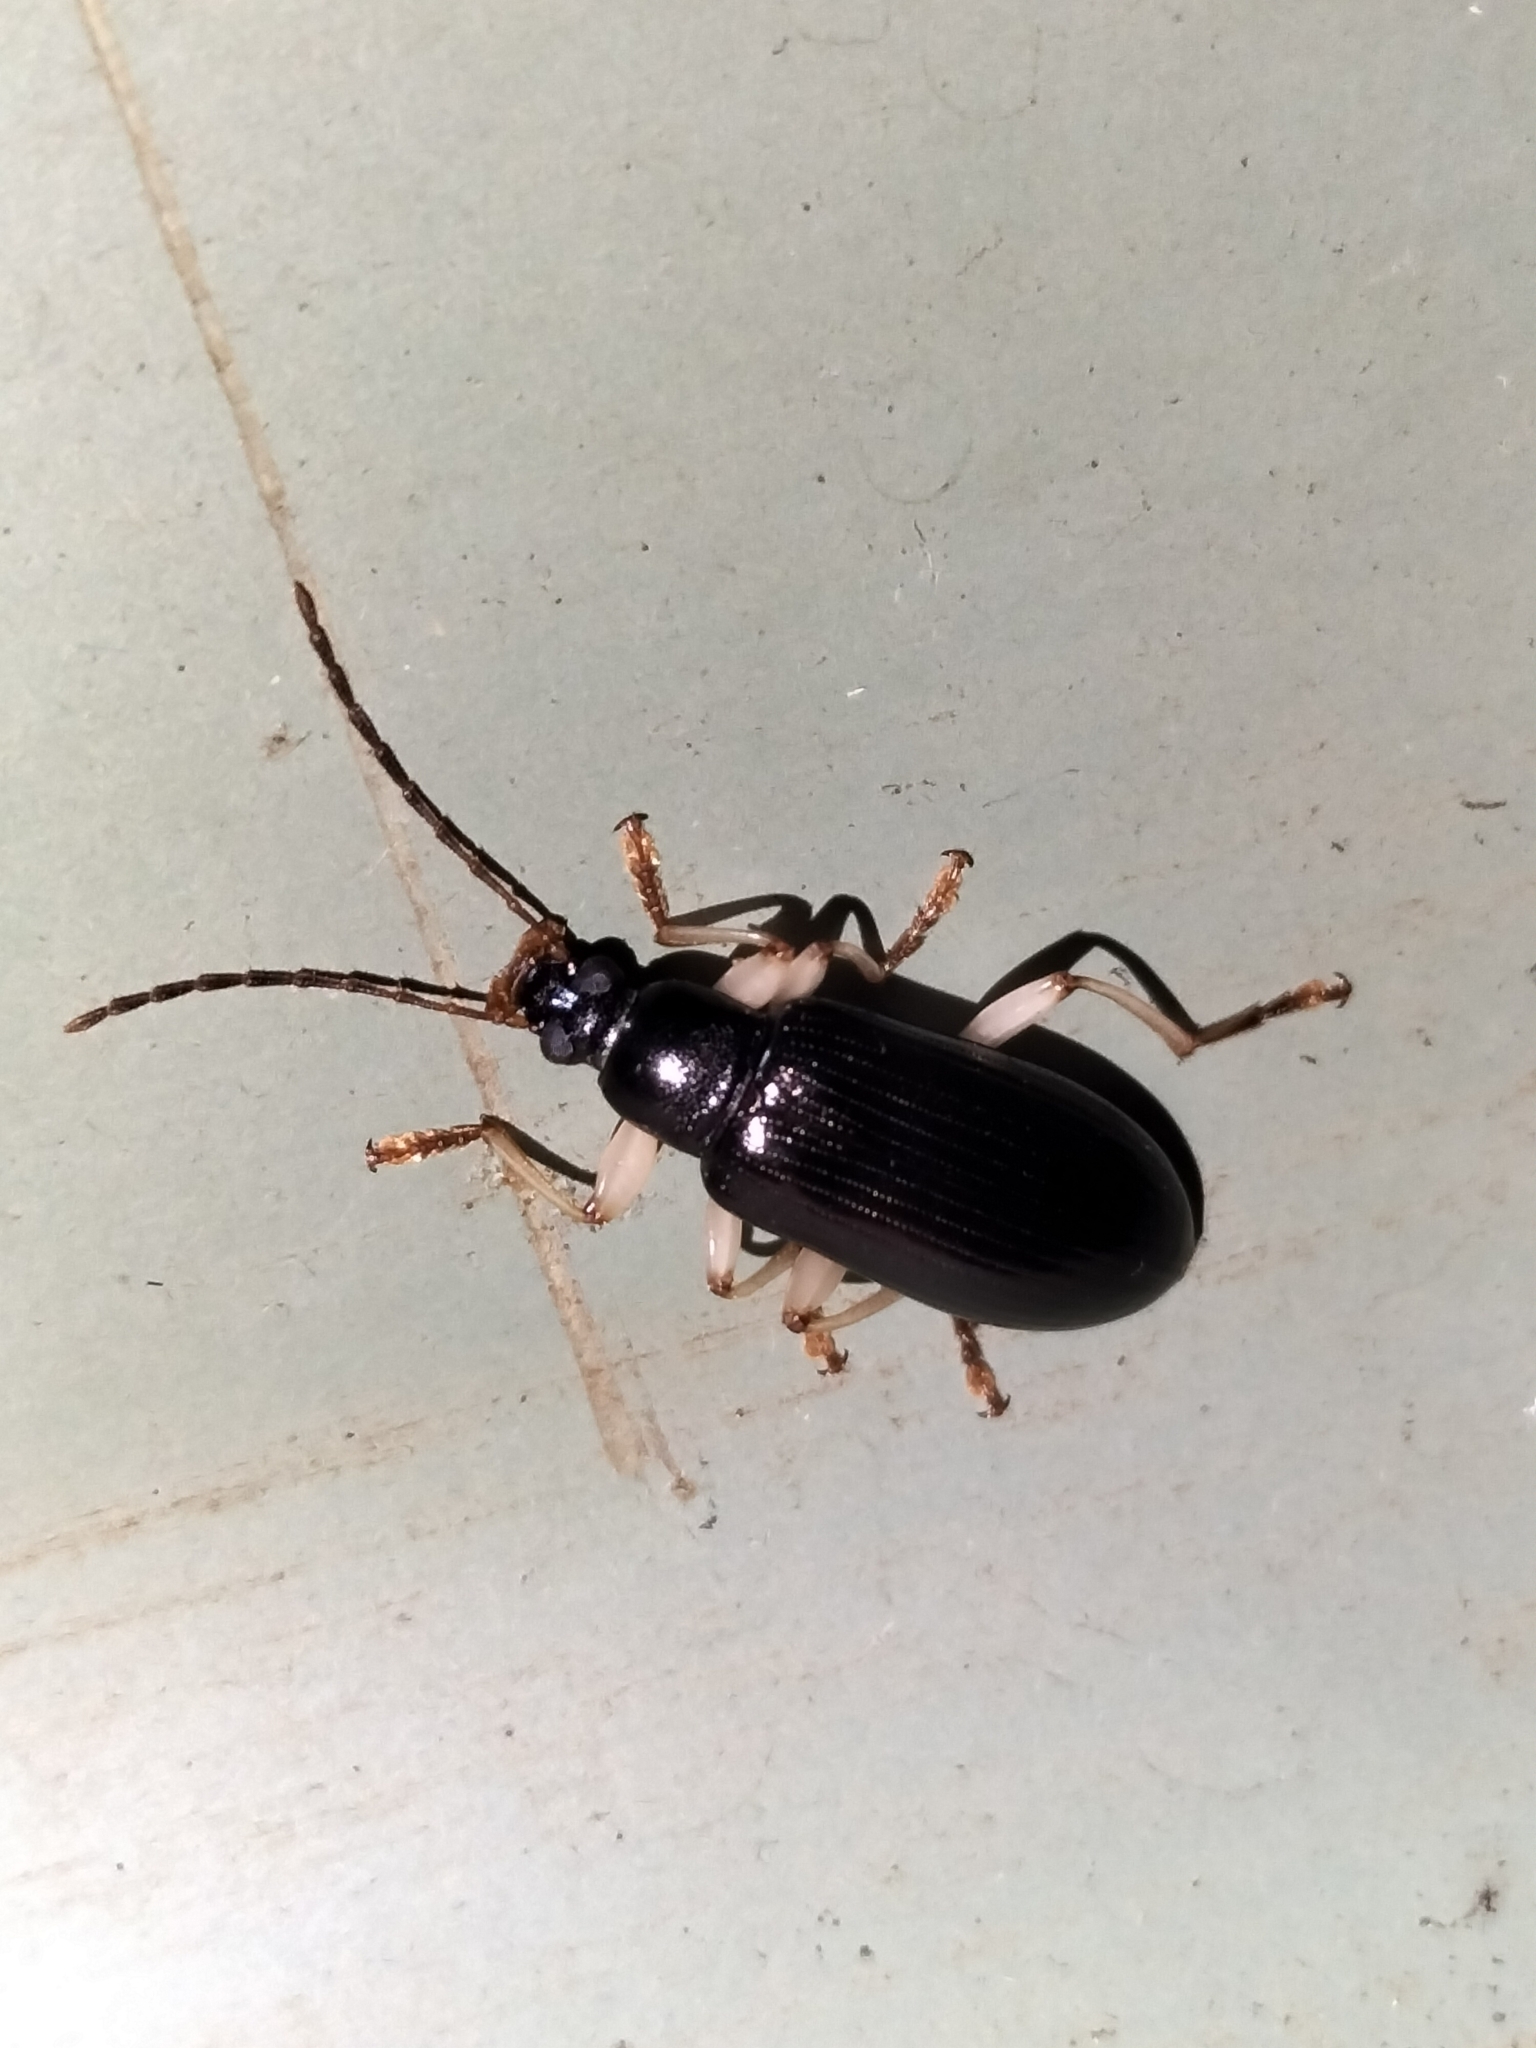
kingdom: Animalia
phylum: Arthropoda
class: Insecta
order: Coleoptera
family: Tenebrionidae
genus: Dimorphochilus
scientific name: Dimorphochilus
